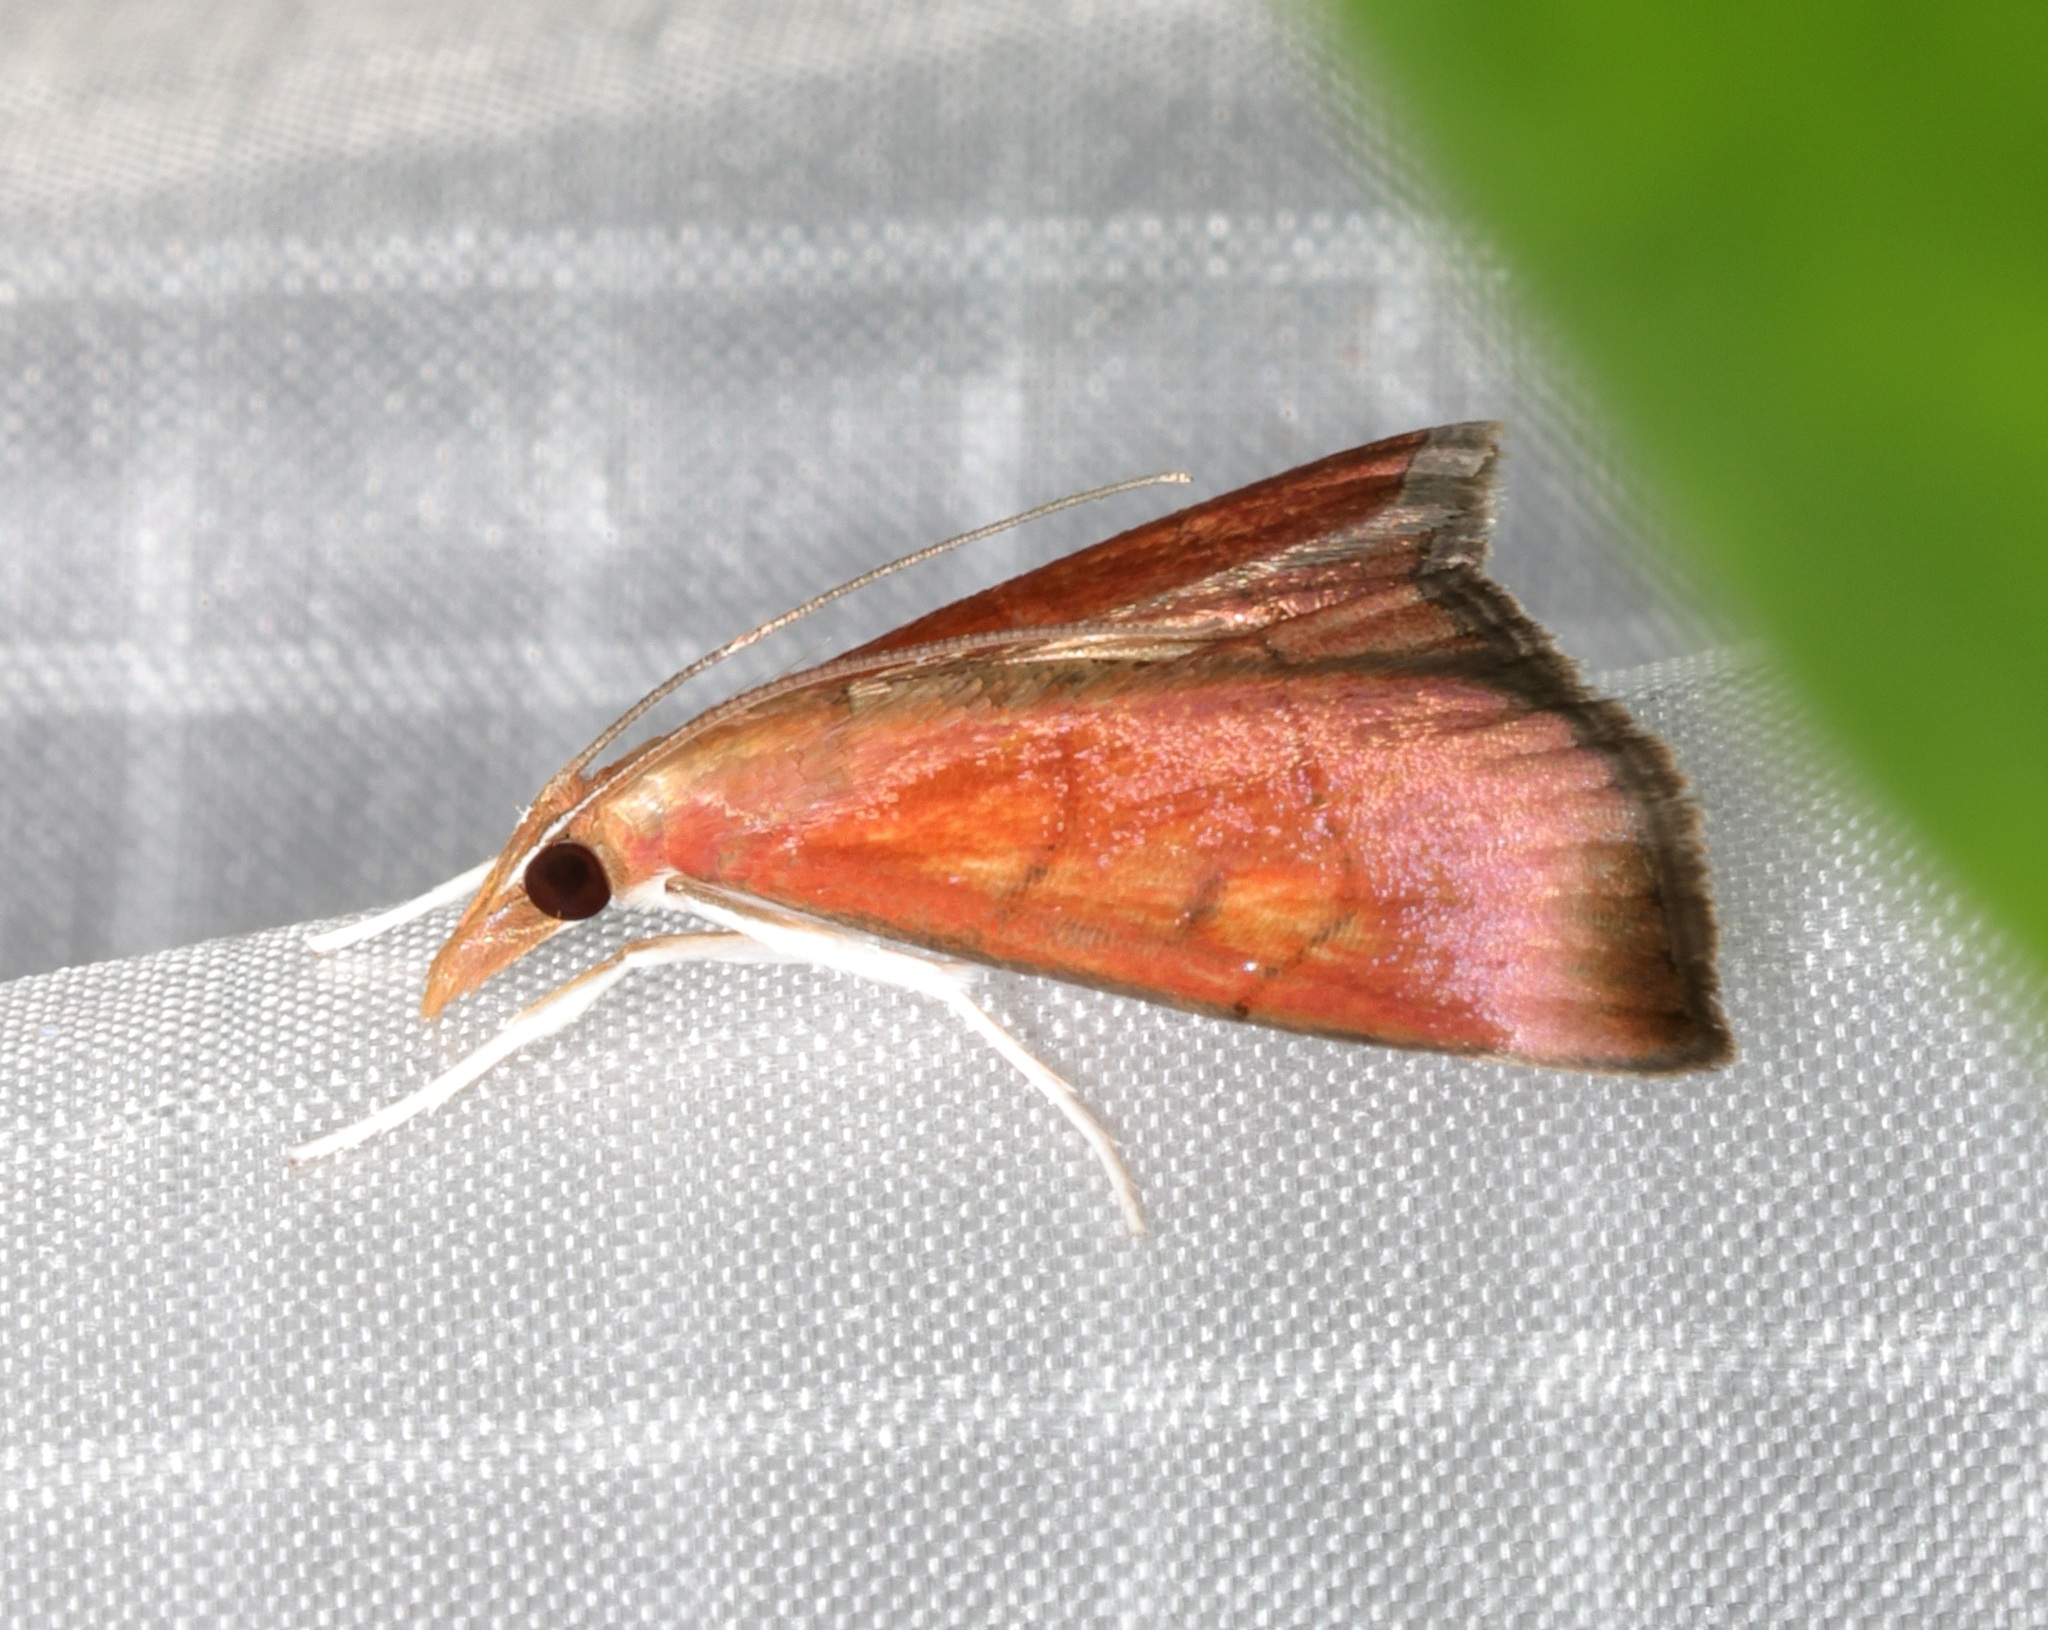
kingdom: Animalia
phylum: Arthropoda
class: Insecta
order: Lepidoptera
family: Crambidae
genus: Hemiscopis
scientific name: Hemiscopis sanguinea
